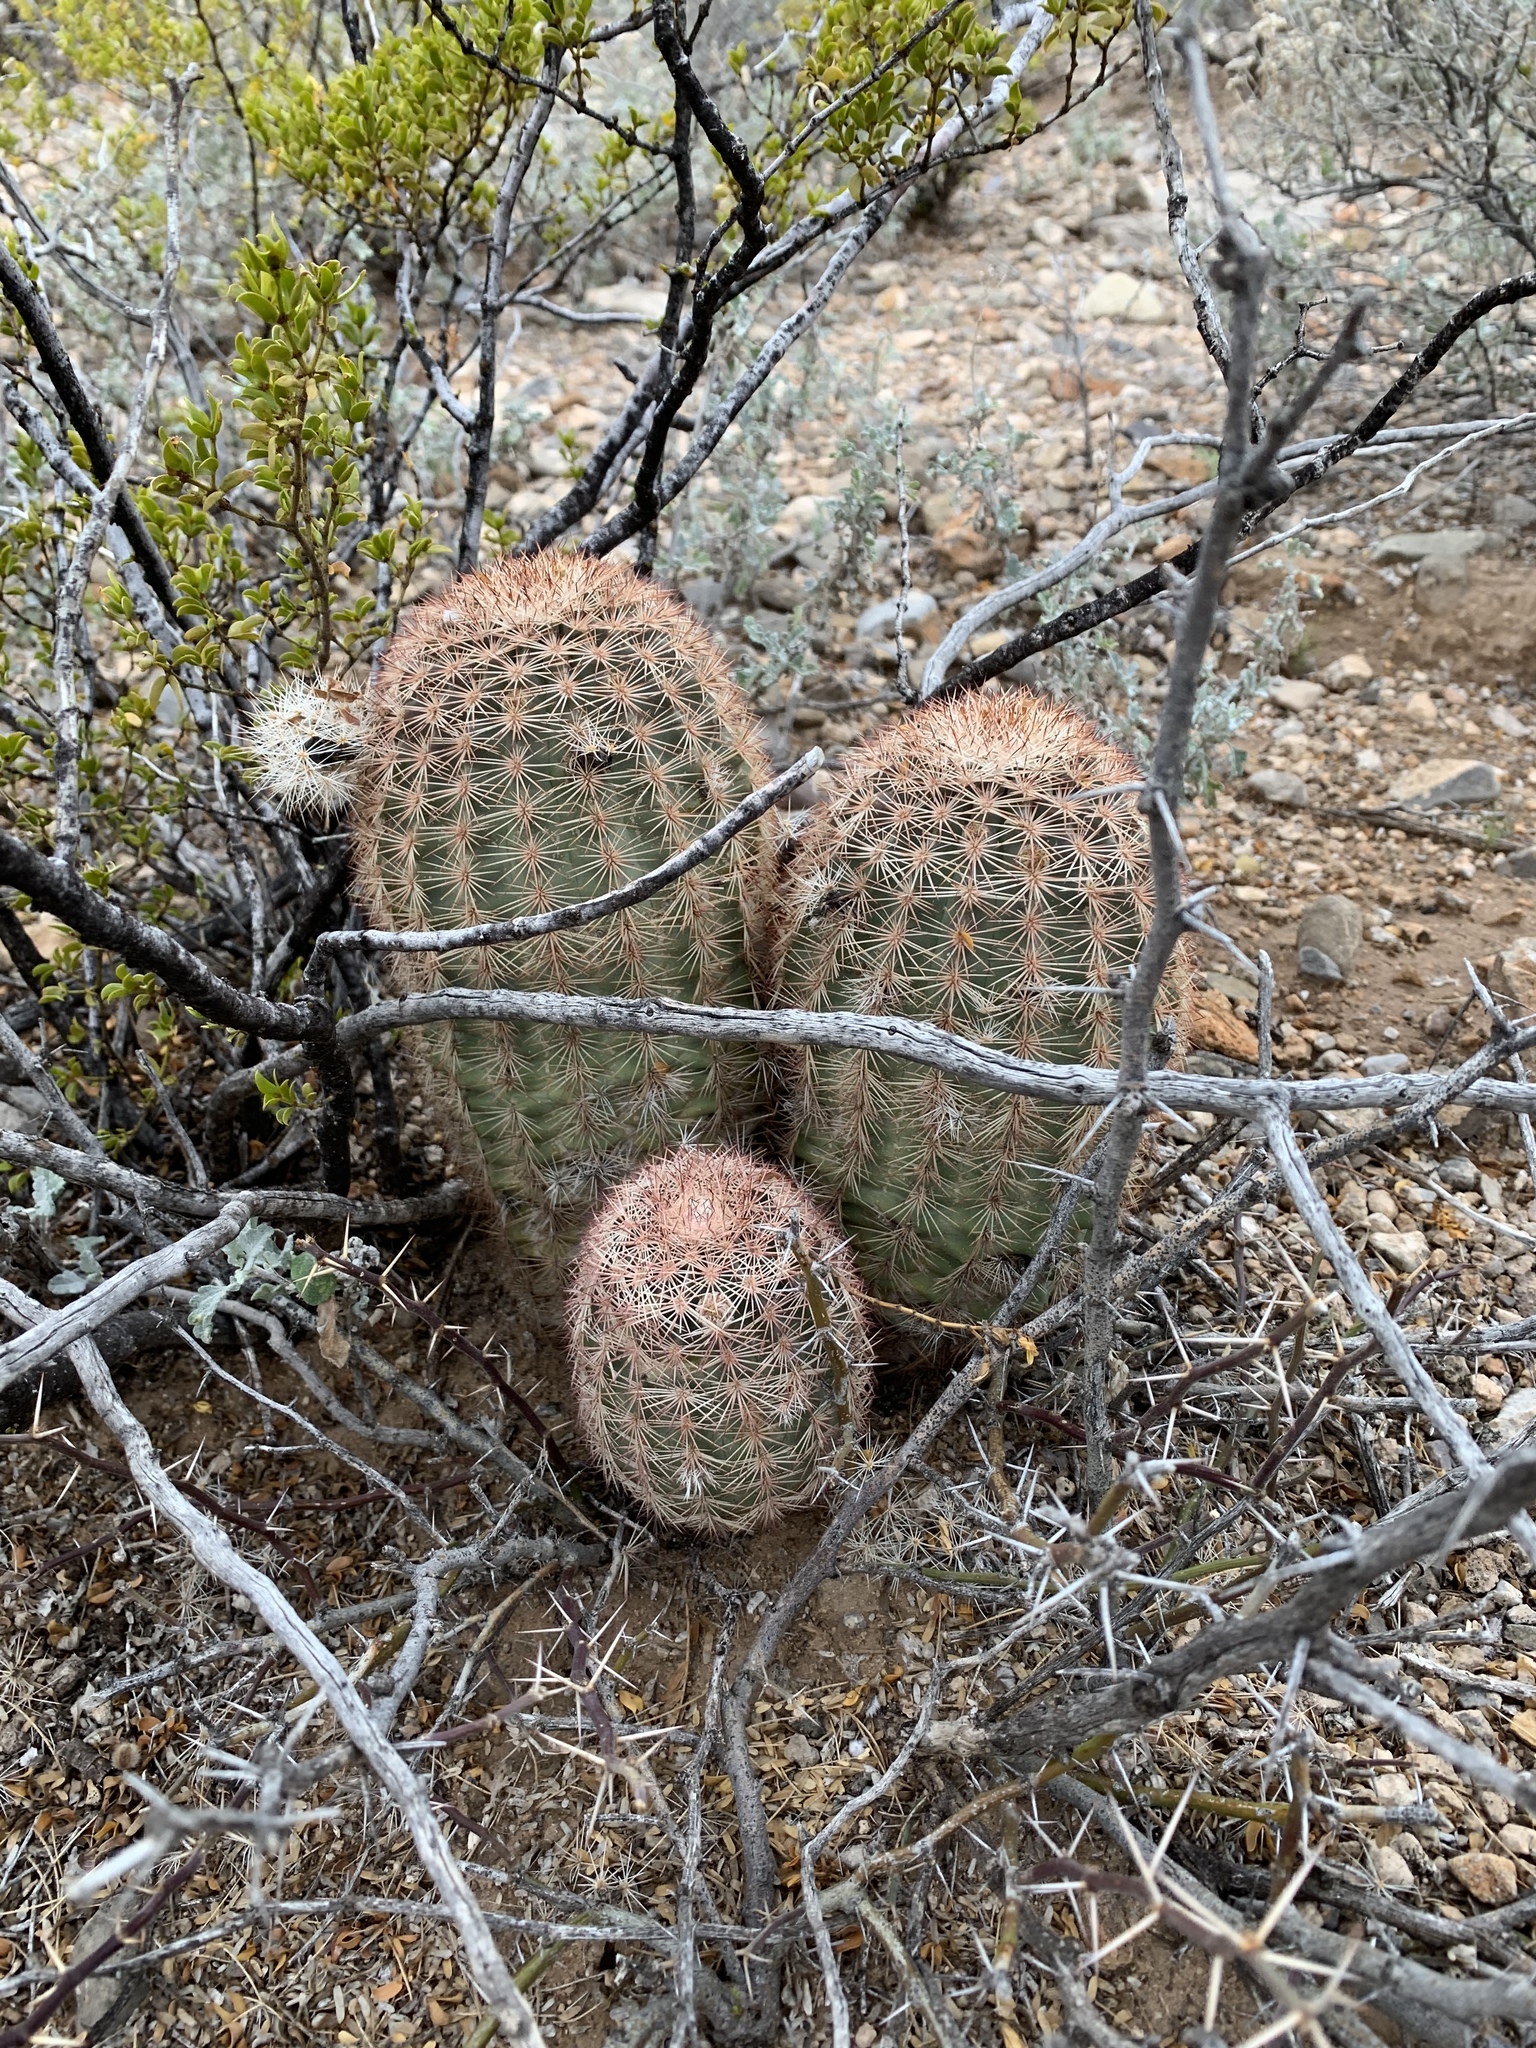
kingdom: Plantae
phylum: Tracheophyta
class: Magnoliopsida
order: Caryophyllales
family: Cactaceae
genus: Echinocereus
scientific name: Echinocereus dasyacanthus
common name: Spiny hedgehog cactus
